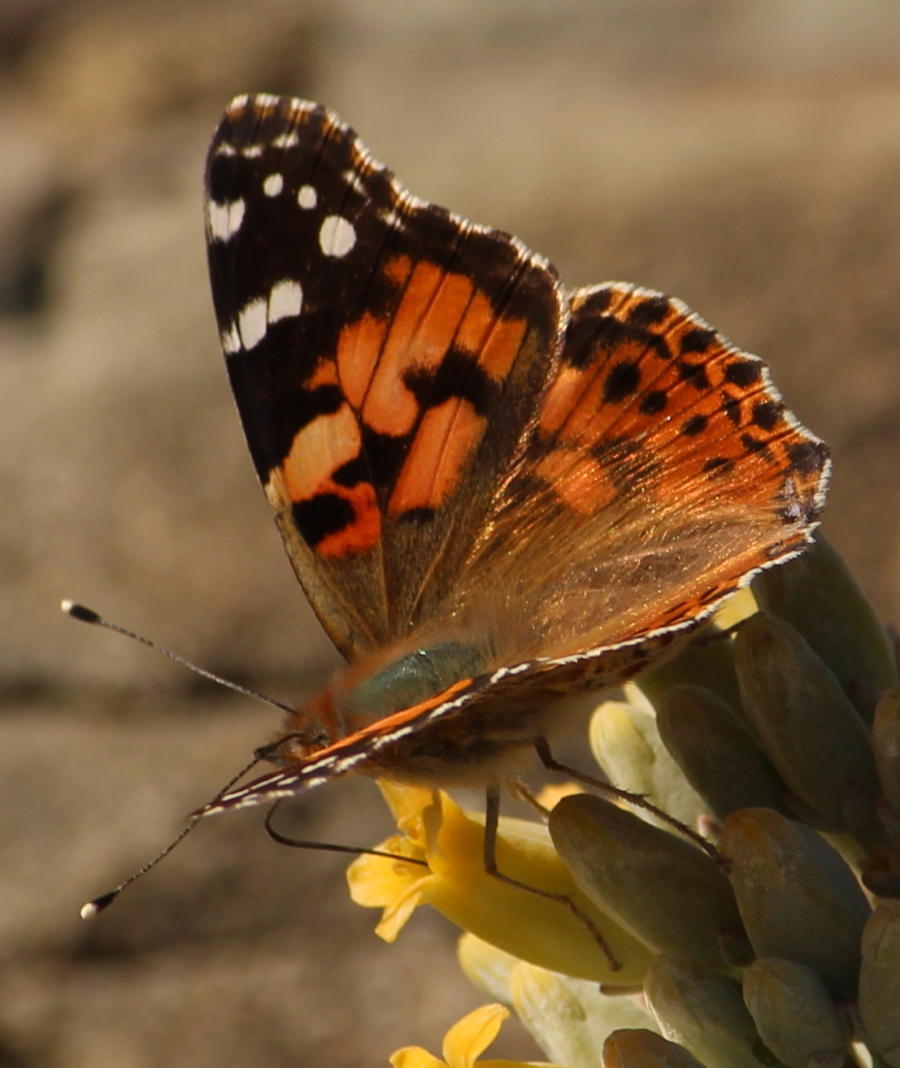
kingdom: Animalia
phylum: Arthropoda
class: Insecta
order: Lepidoptera
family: Nymphalidae
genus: Vanessa
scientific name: Vanessa cardui
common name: Painted lady
